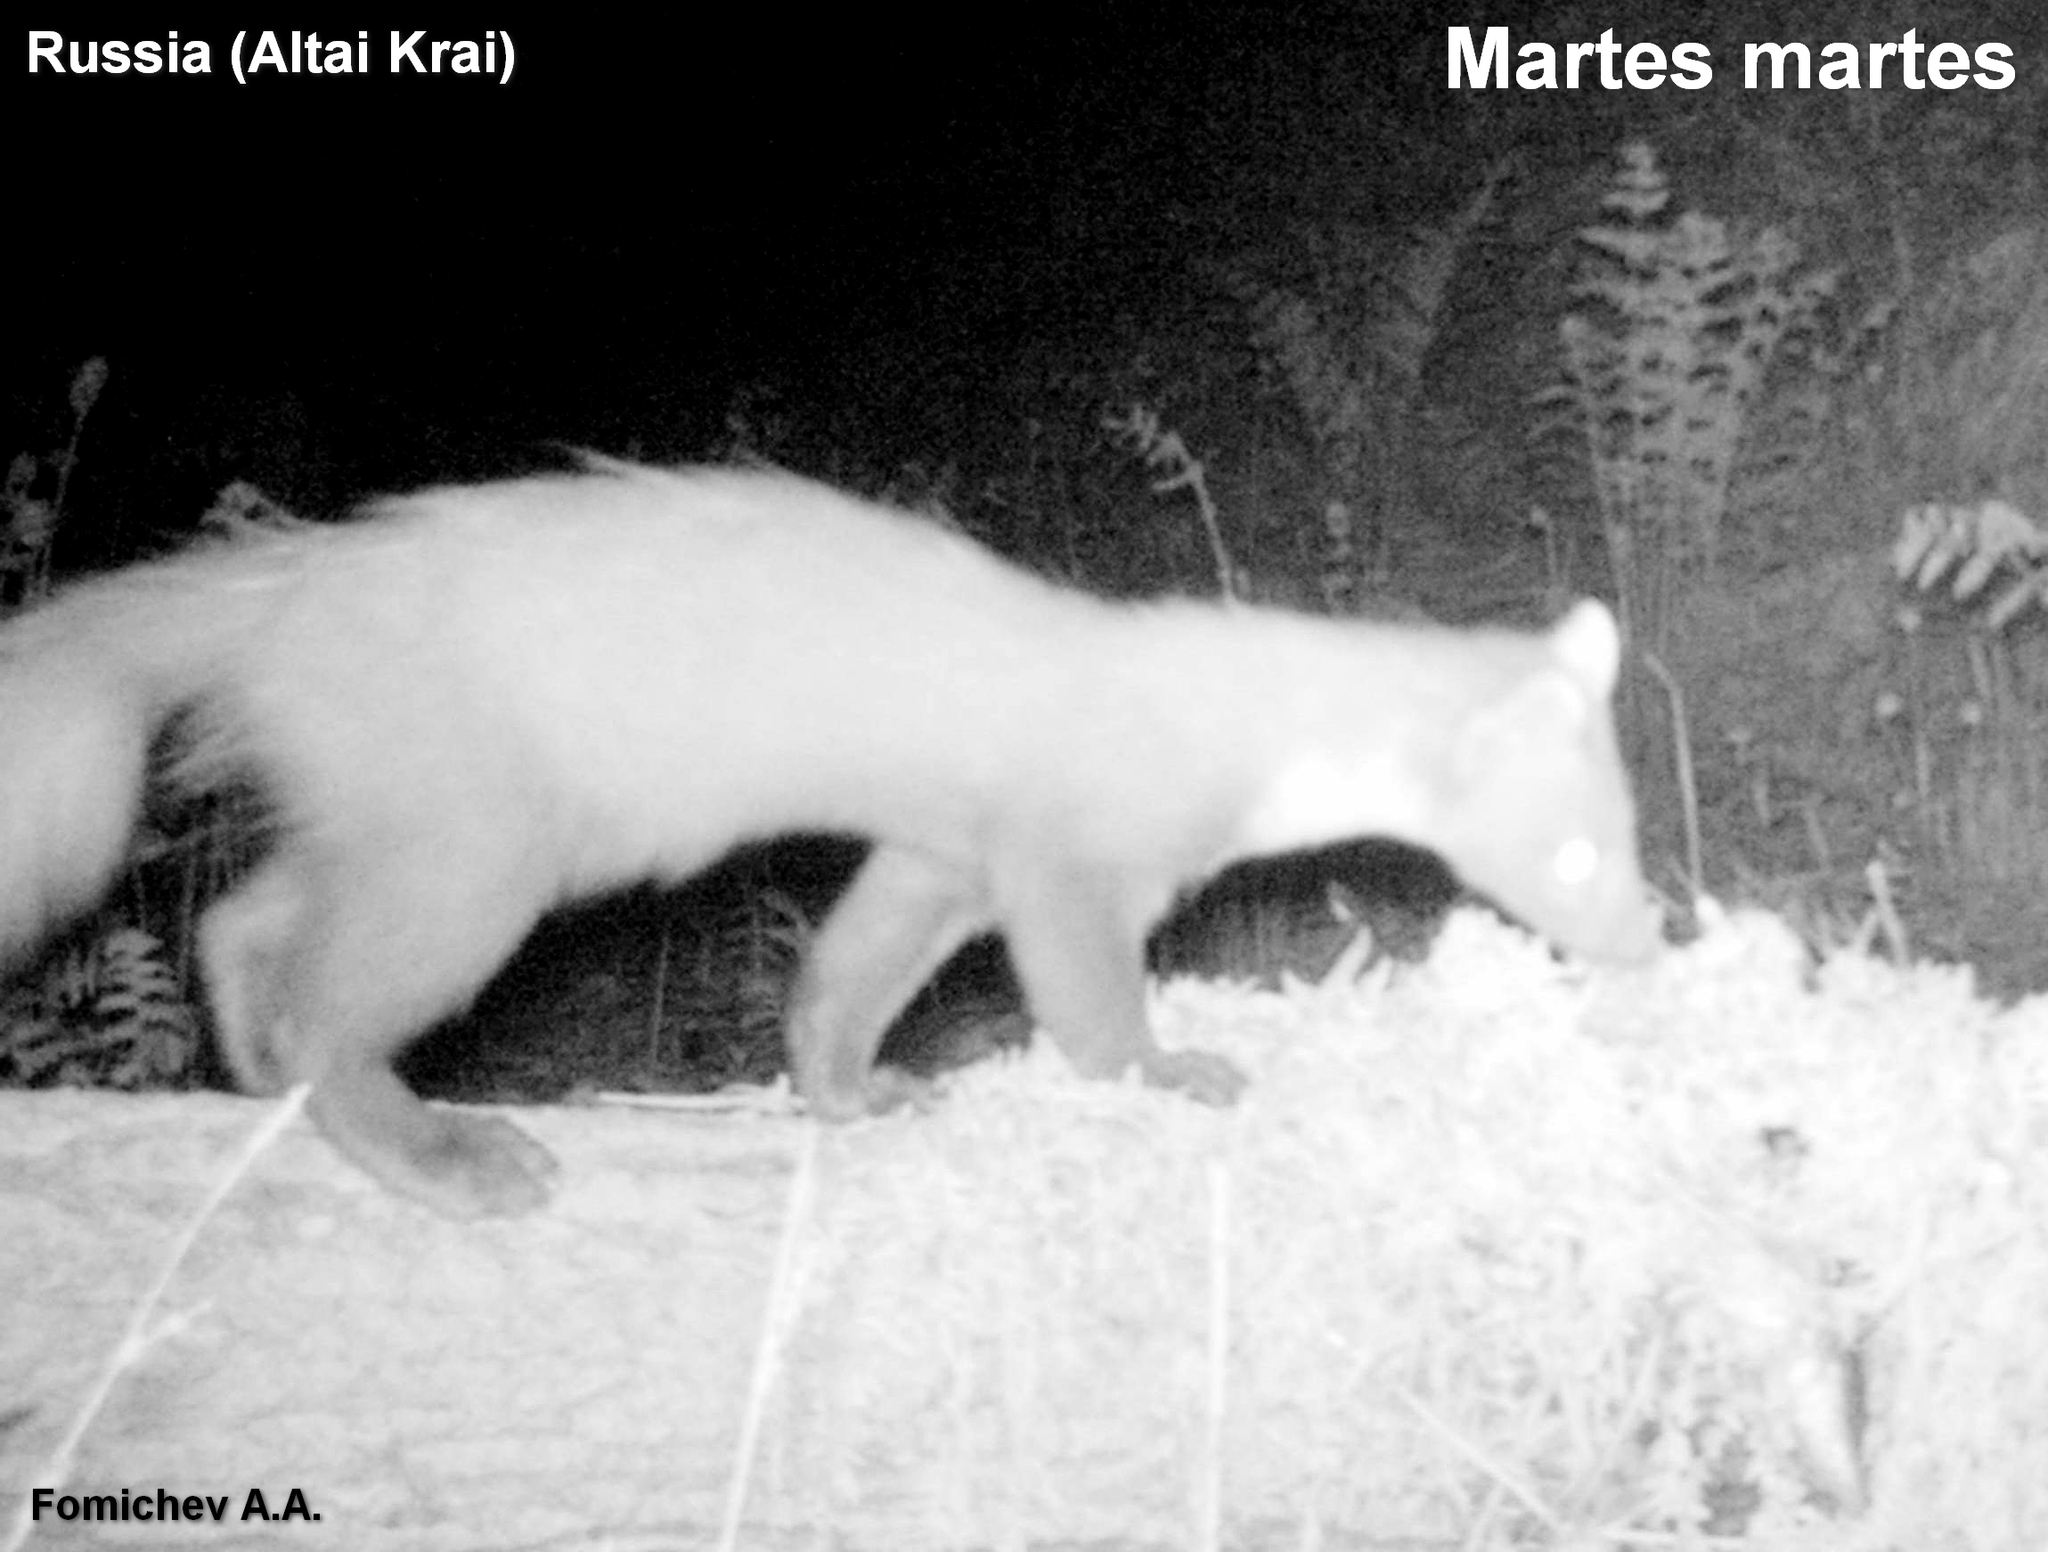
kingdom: Animalia
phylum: Chordata
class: Mammalia
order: Carnivora
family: Mustelidae
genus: Martes
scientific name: Martes martes
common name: European pine marten
